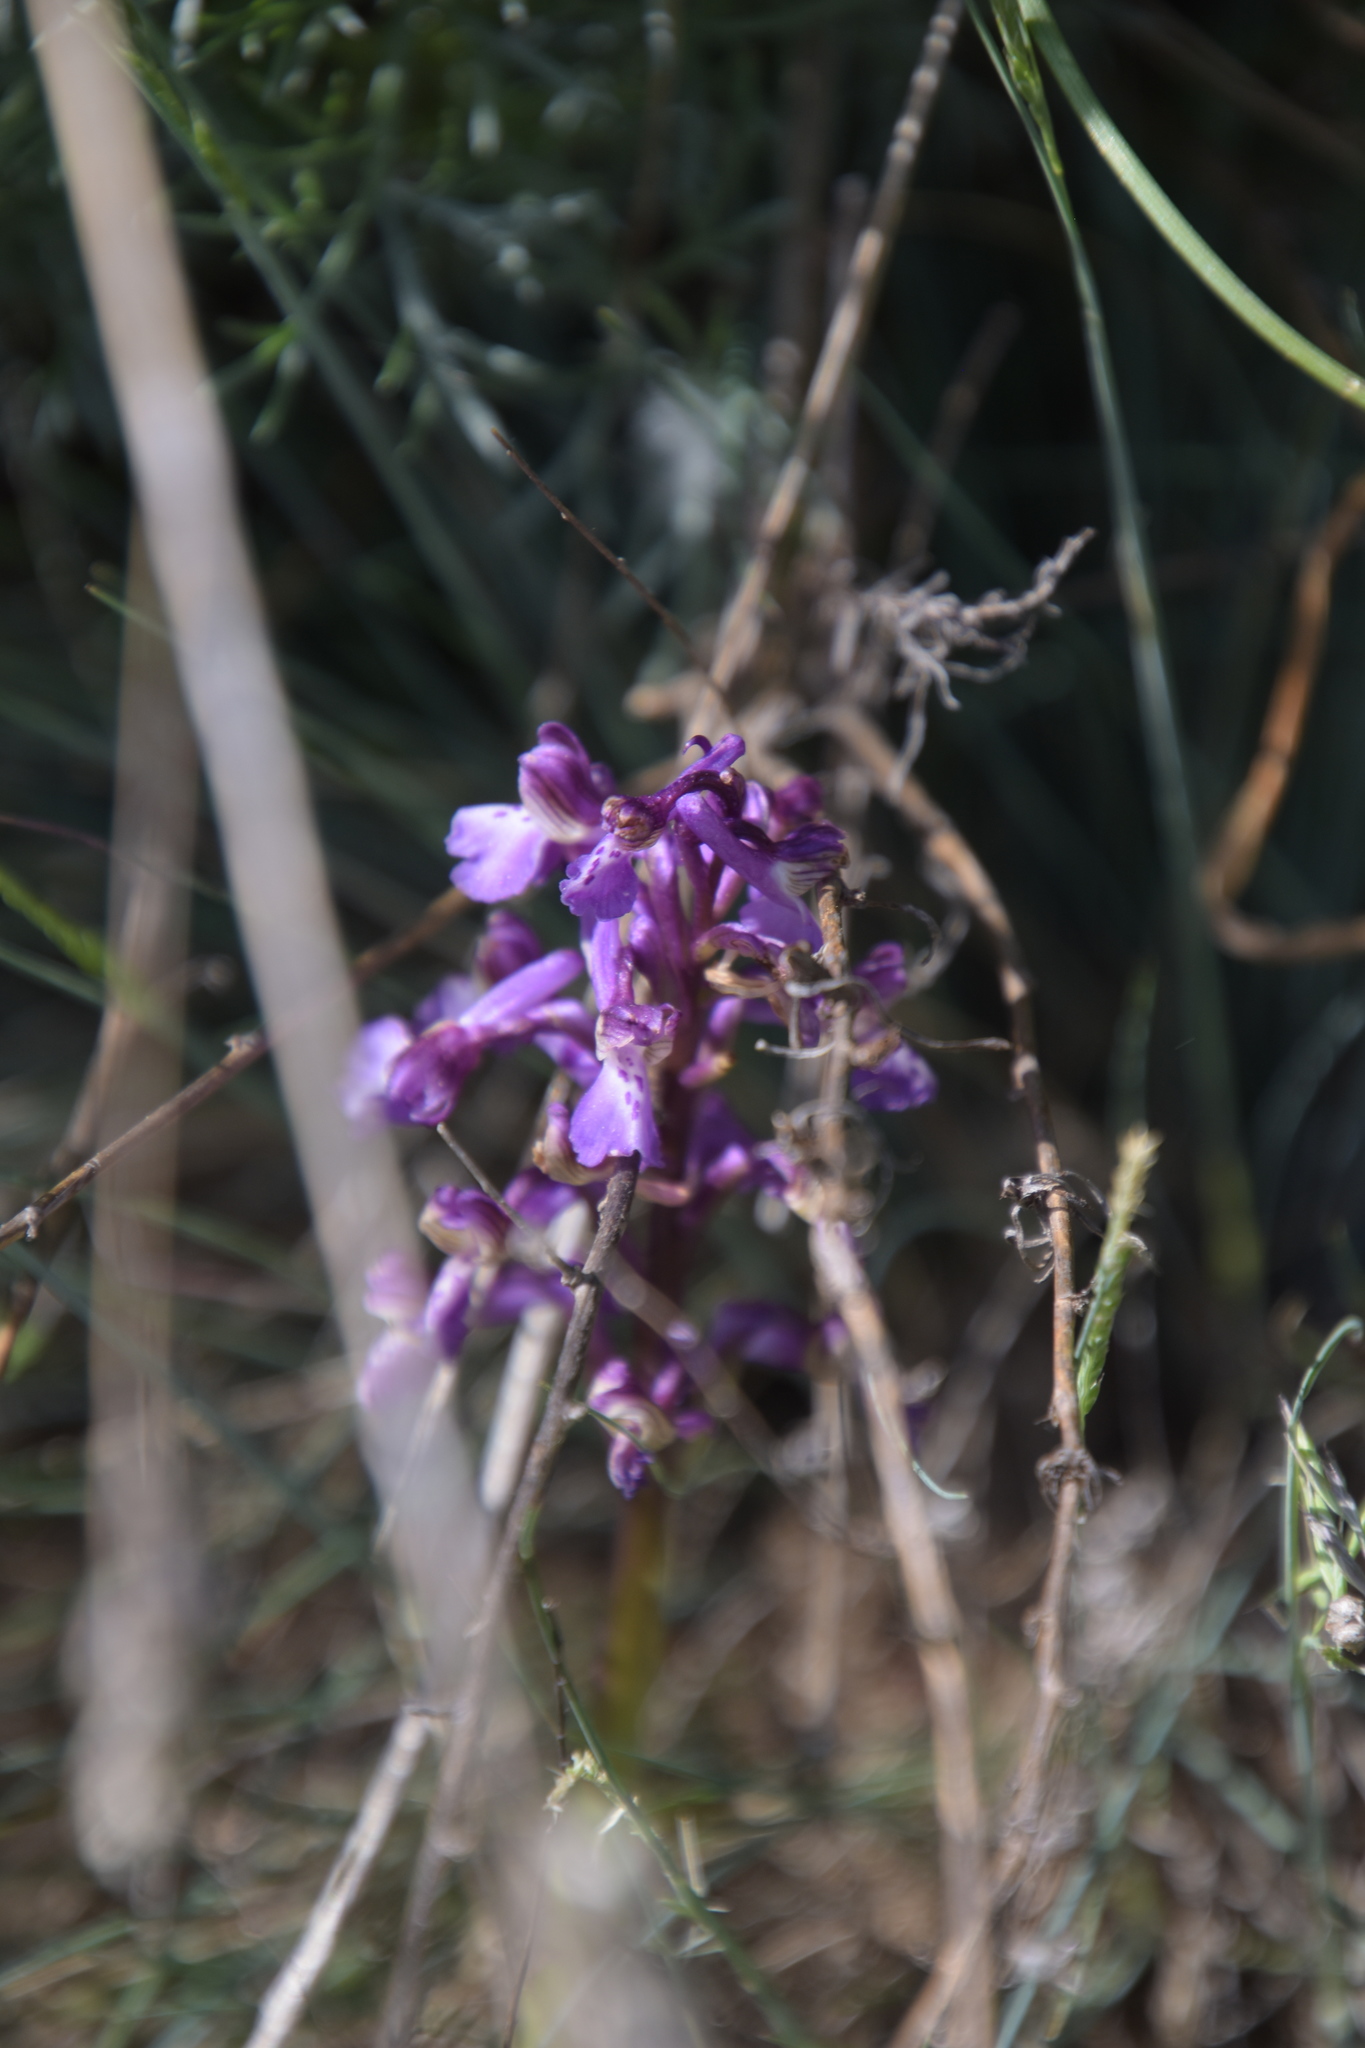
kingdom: Plantae
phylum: Tracheophyta
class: Liliopsida
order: Asparagales
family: Orchidaceae
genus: Anacamptis
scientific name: Anacamptis morio
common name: Green-winged orchid
